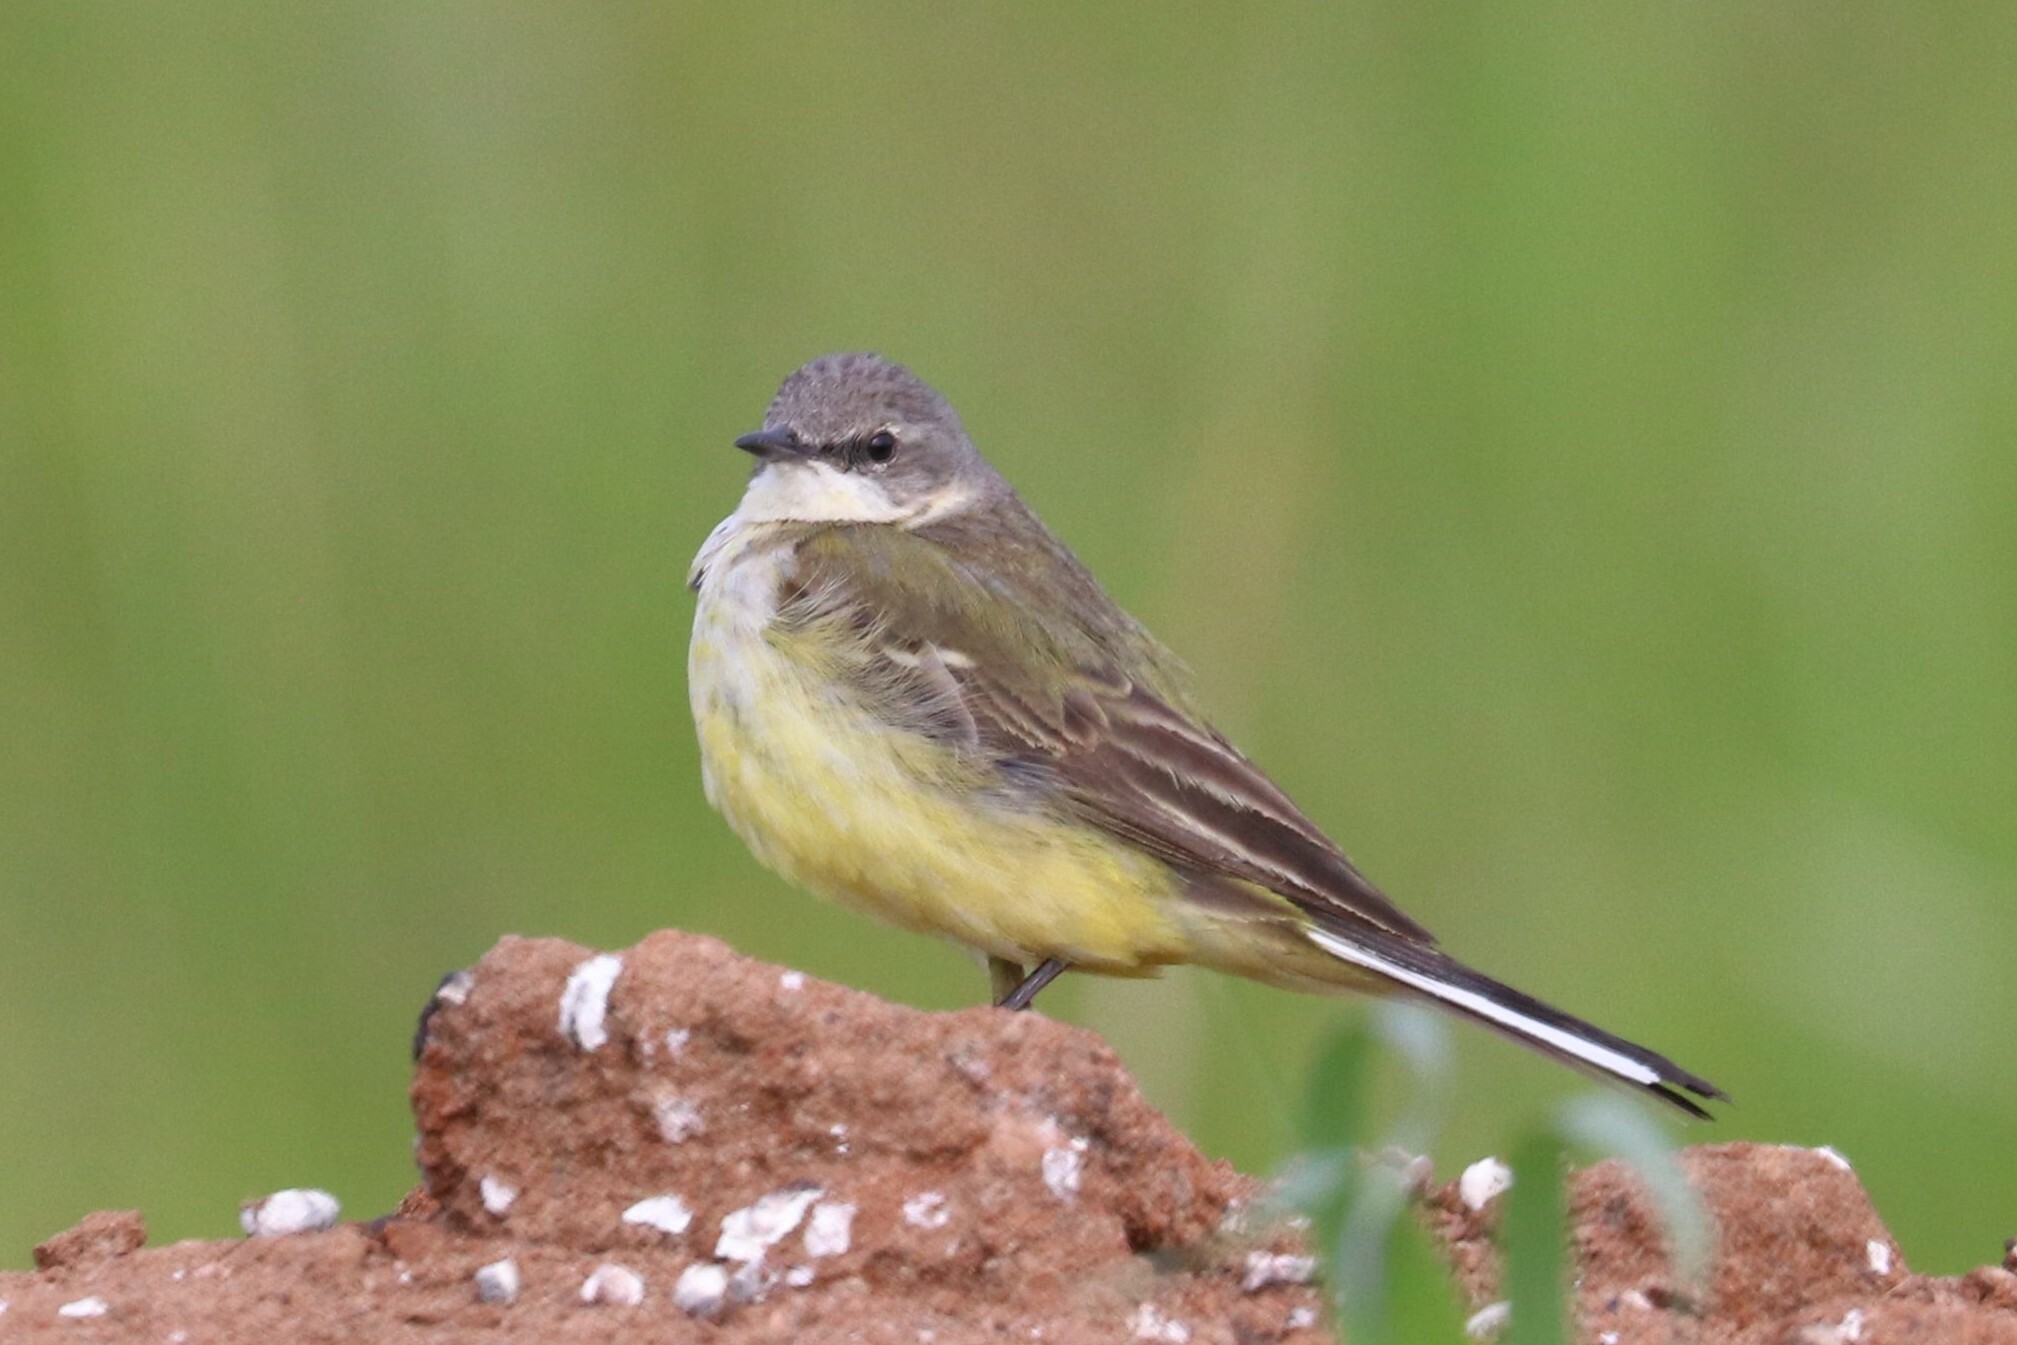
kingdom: Animalia
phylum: Chordata
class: Aves
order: Passeriformes
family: Motacillidae
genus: Motacilla
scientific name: Motacilla flava
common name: Western yellow wagtail
